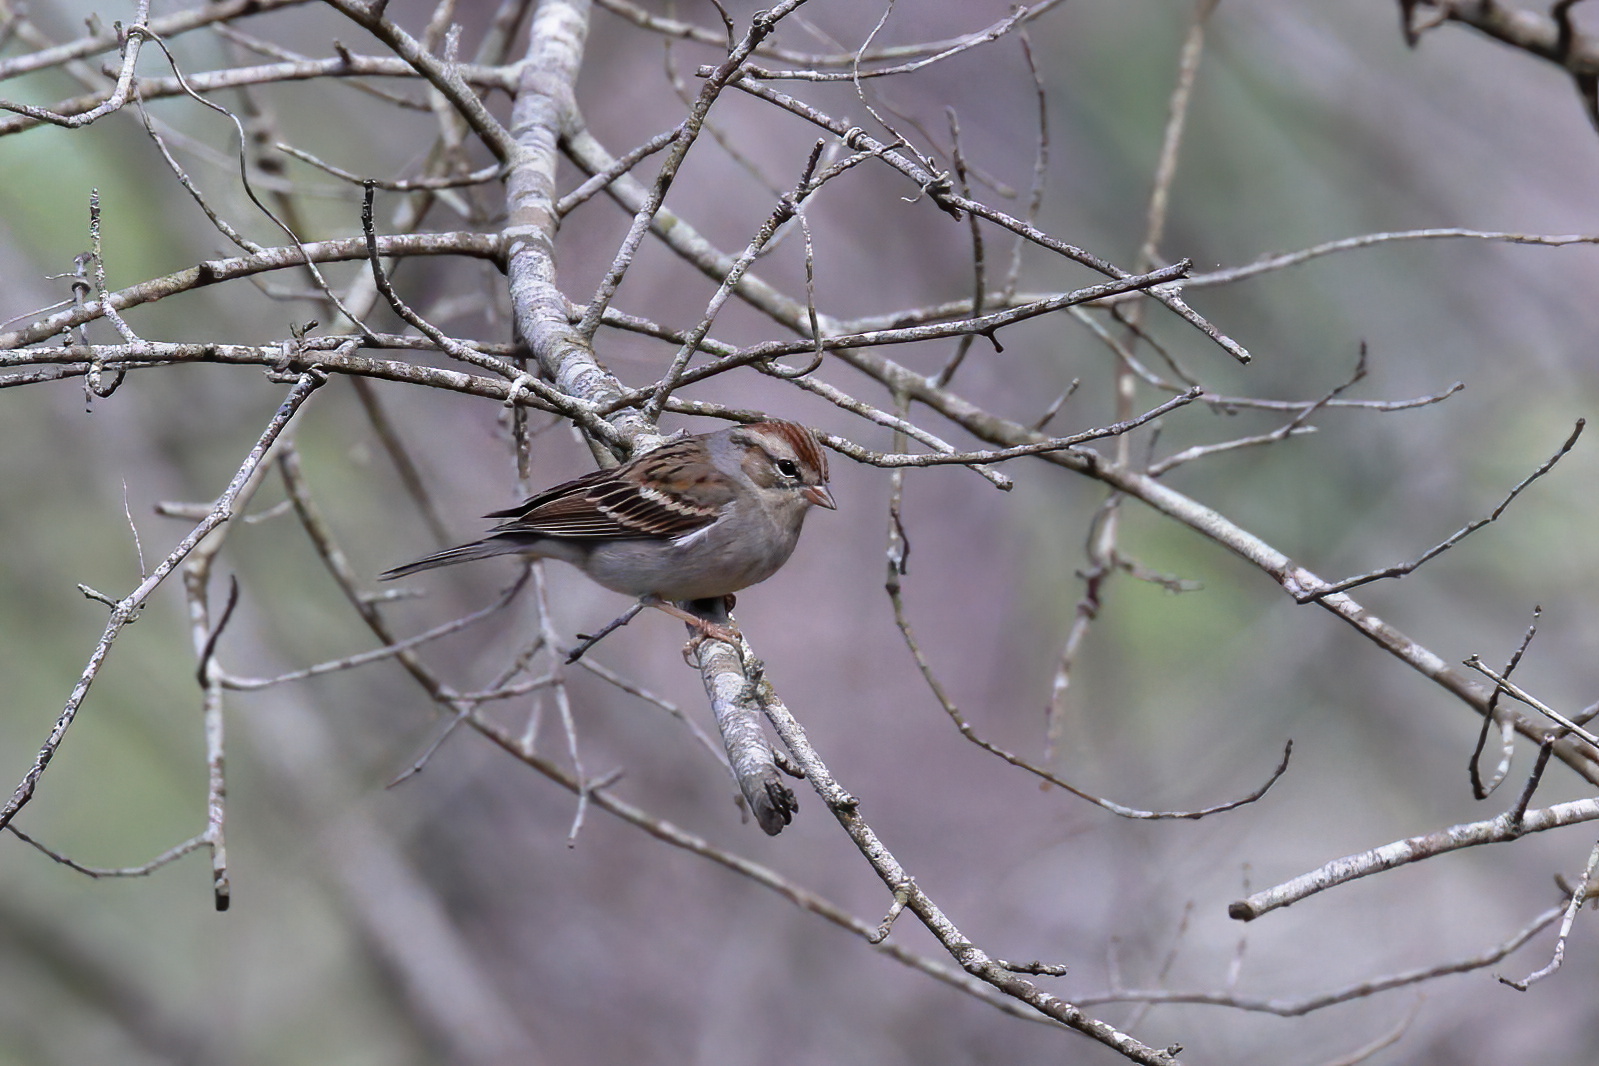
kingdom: Animalia
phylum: Chordata
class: Aves
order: Passeriformes
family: Passerellidae
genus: Spizella
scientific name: Spizella passerina
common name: Chipping sparrow
